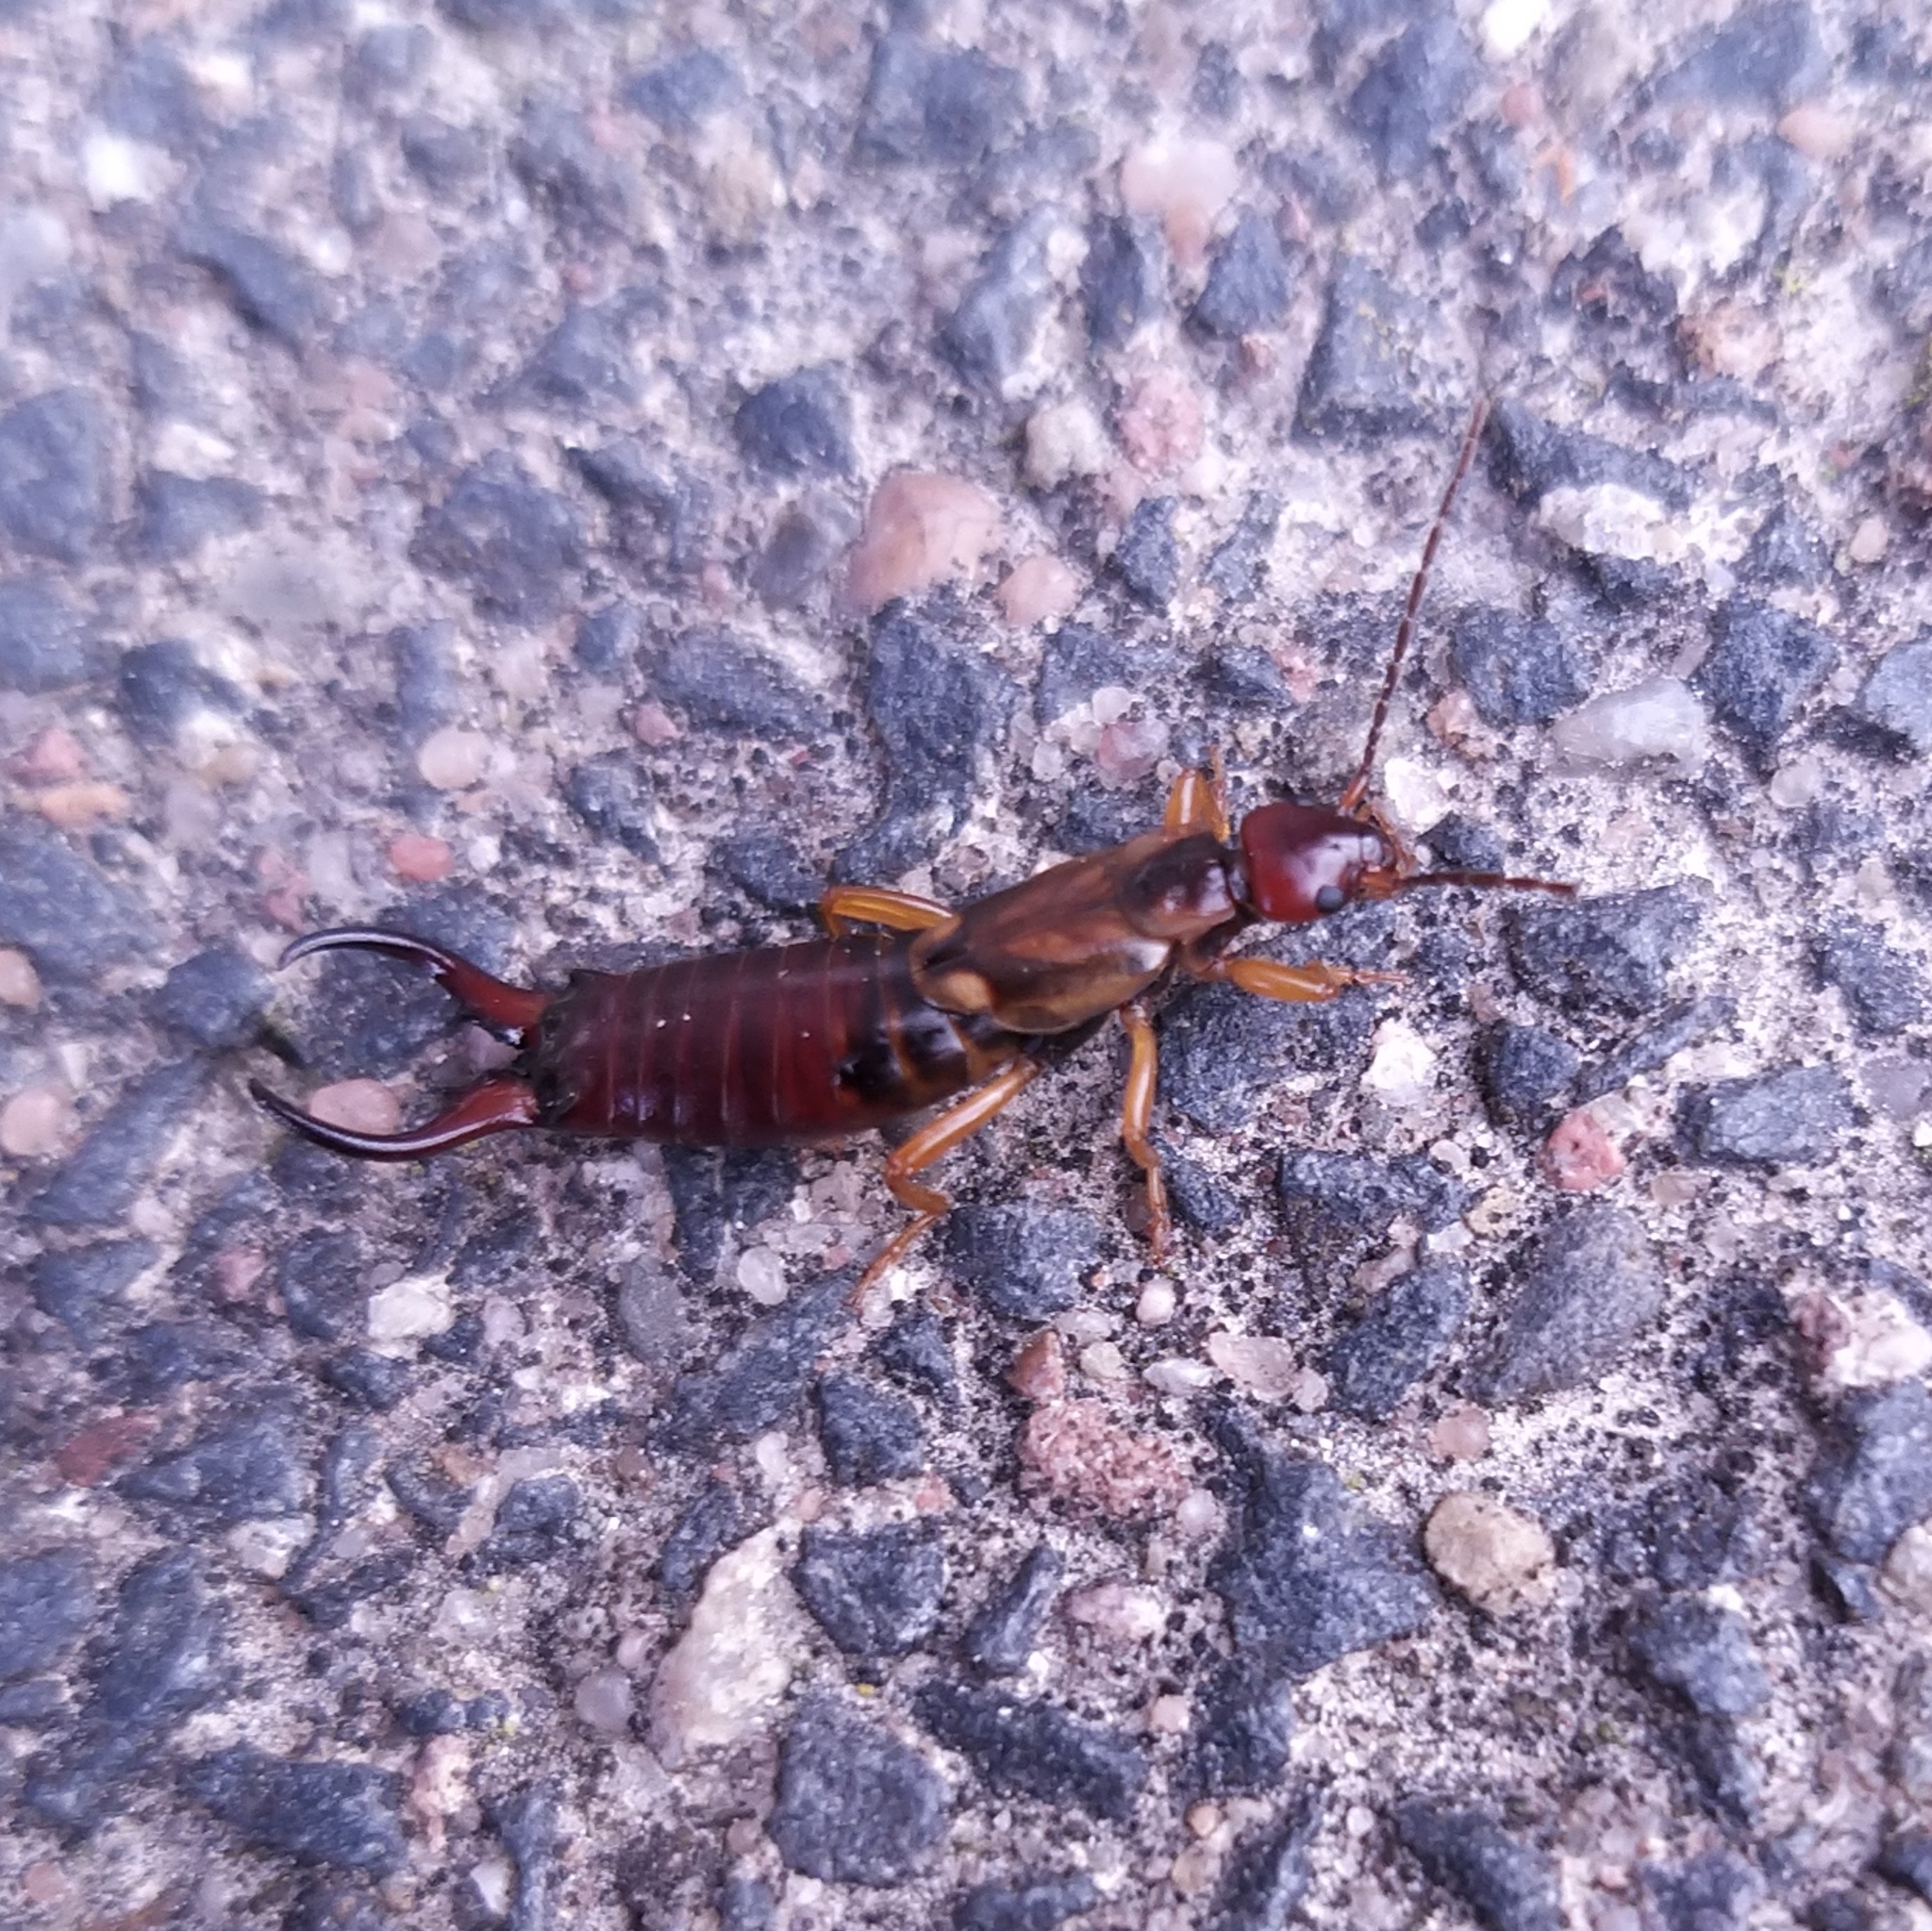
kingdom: Animalia
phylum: Arthropoda
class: Insecta
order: Dermaptera
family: Forficulidae
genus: Forficula
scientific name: Forficula
